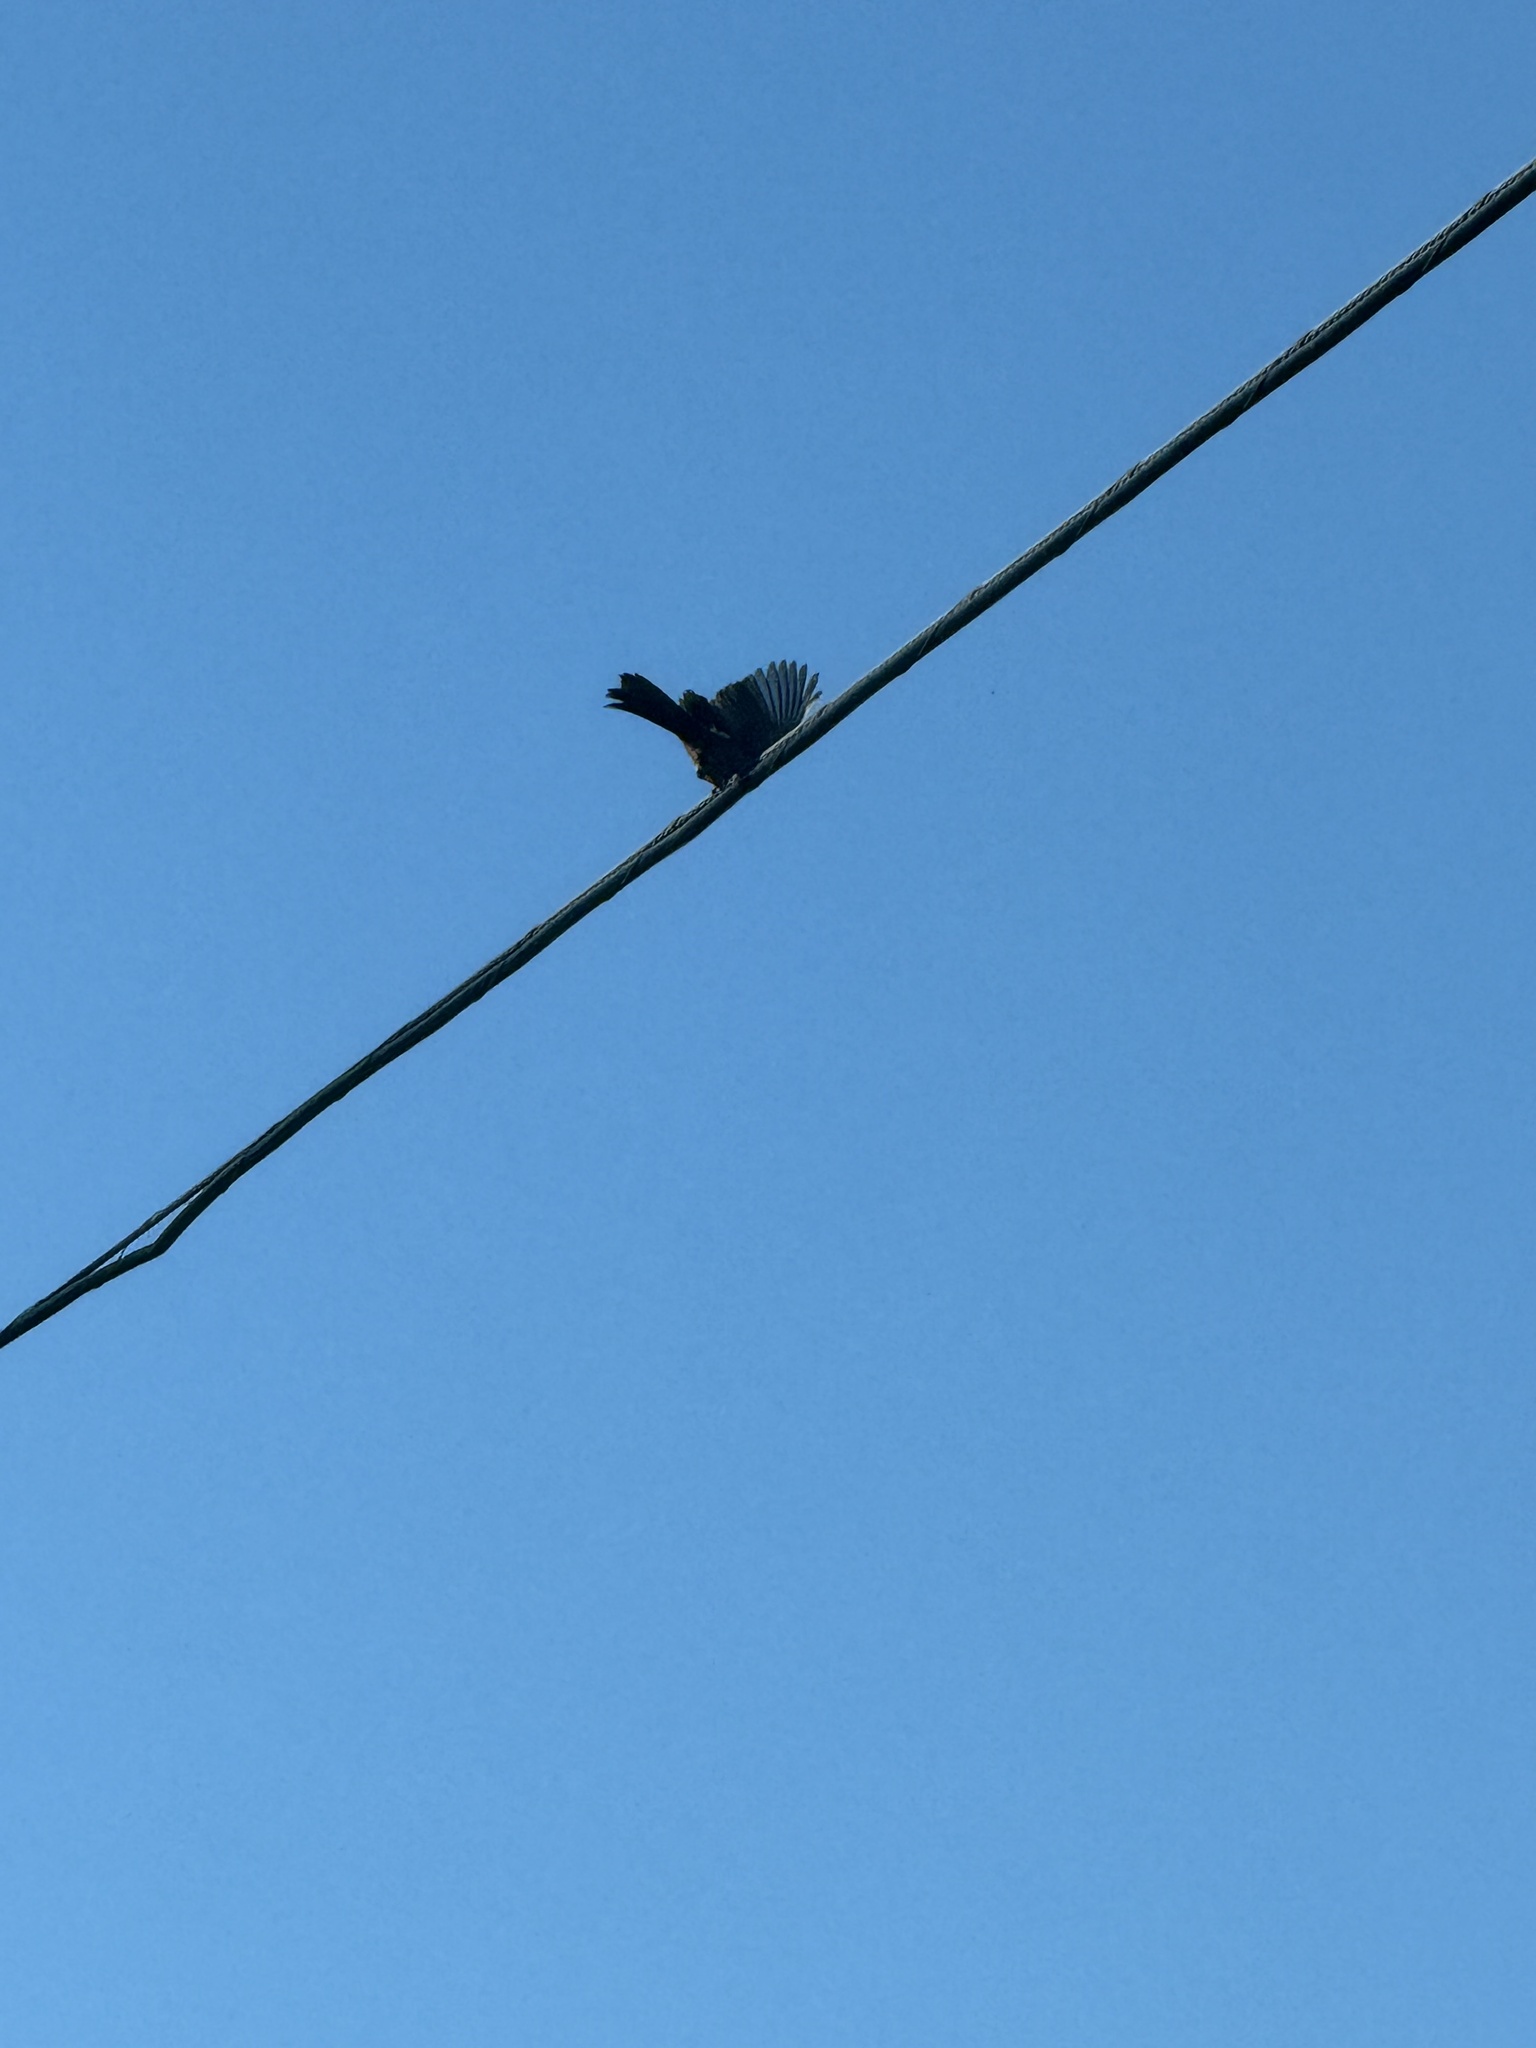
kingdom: Animalia
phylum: Chordata
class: Aves
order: Passeriformes
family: Passerellidae
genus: Melozone
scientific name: Melozone crissalis
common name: California towhee
